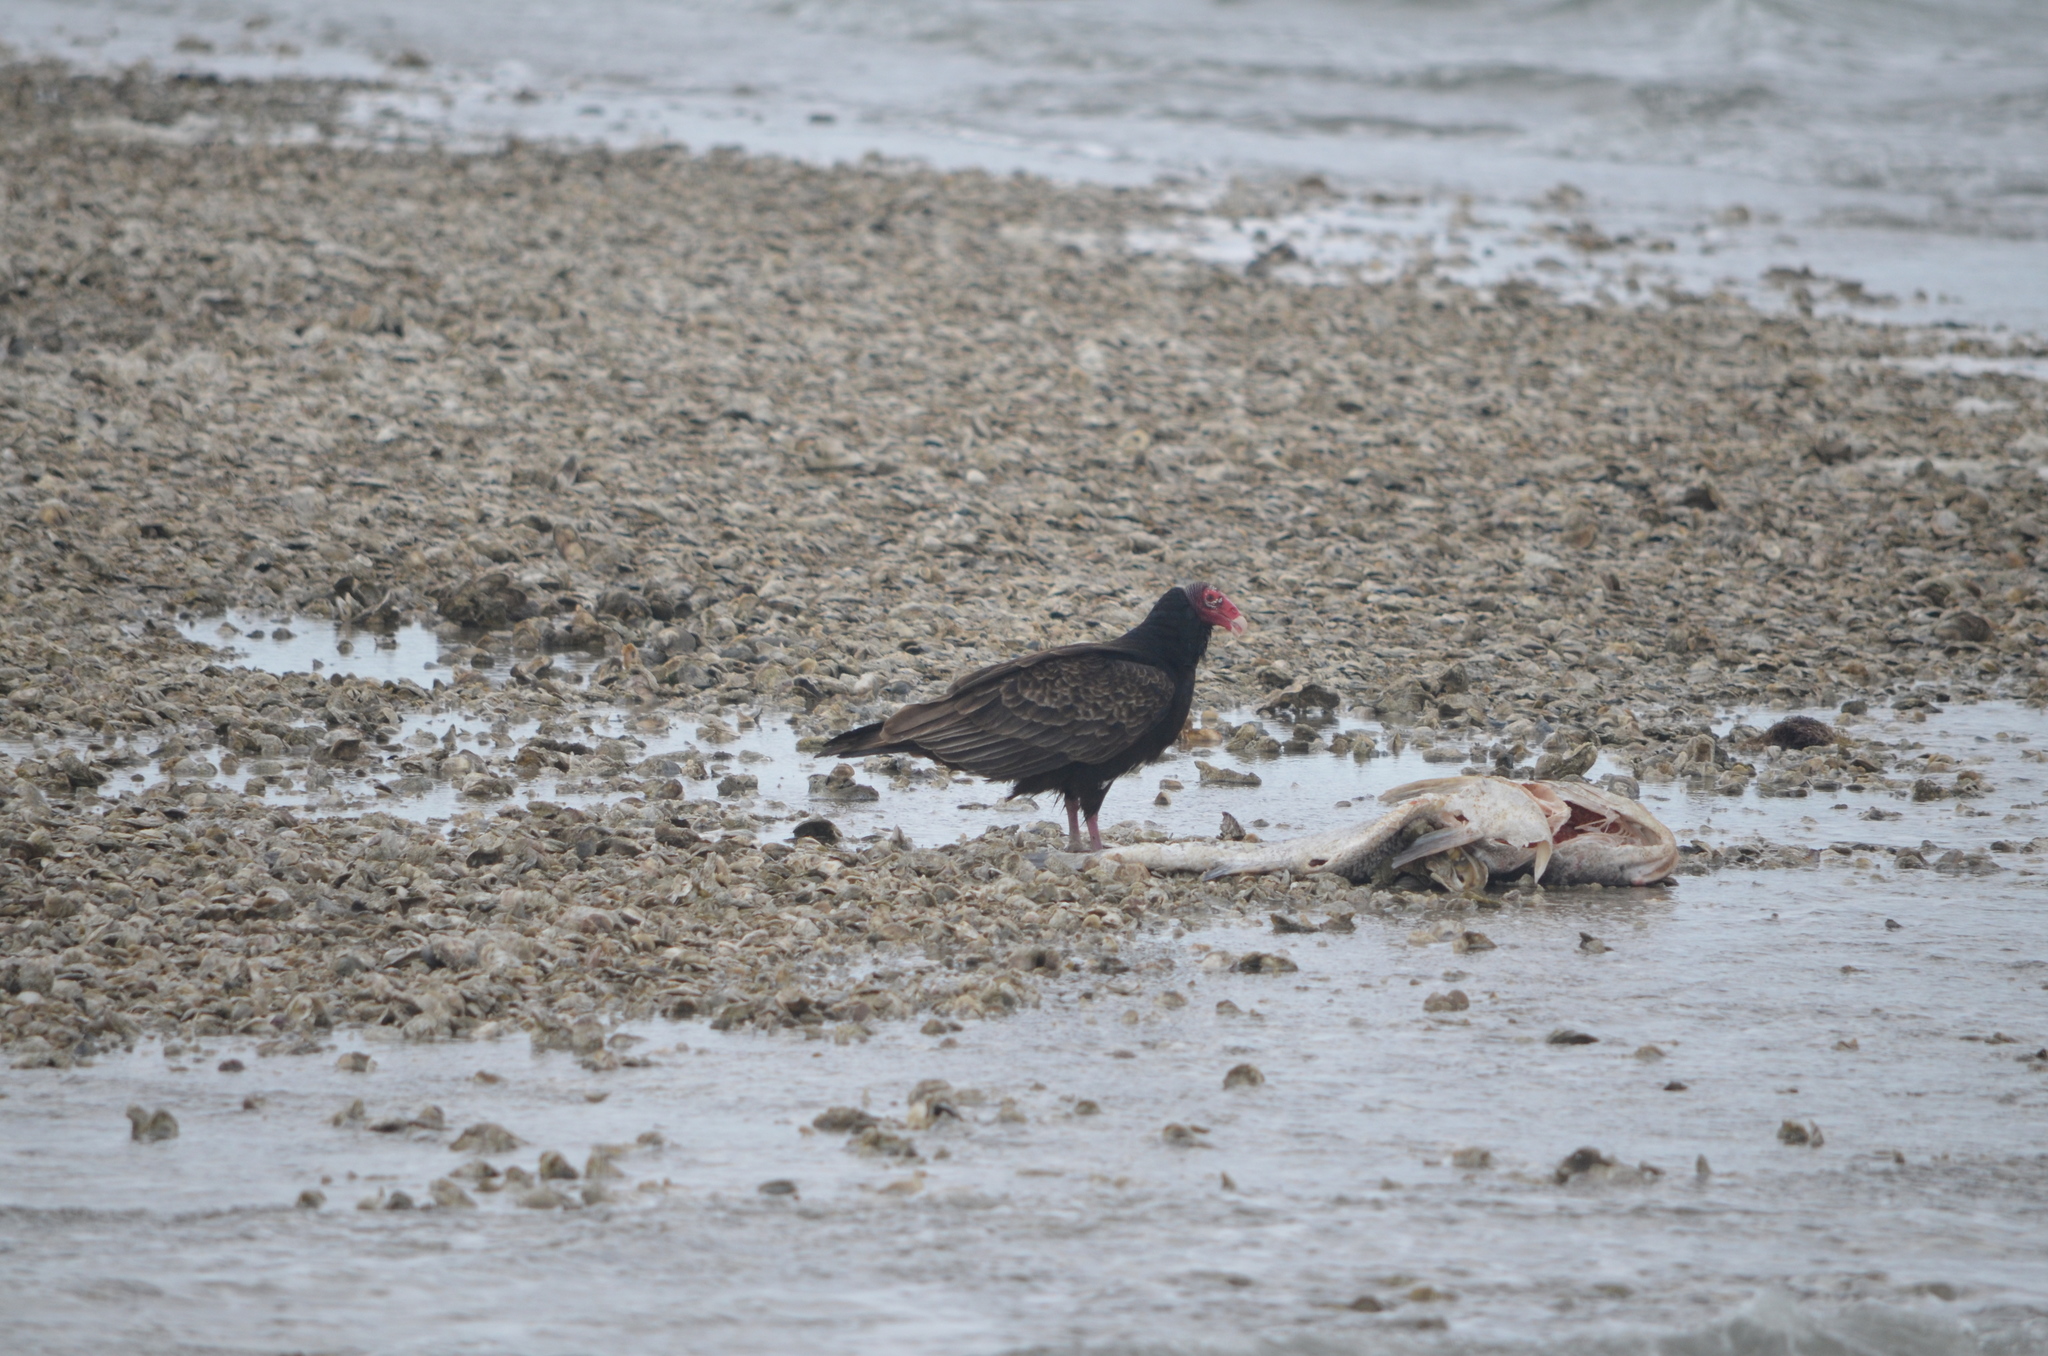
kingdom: Animalia
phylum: Chordata
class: Aves
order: Accipitriformes
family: Cathartidae
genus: Cathartes
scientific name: Cathartes aura
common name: Turkey vulture
